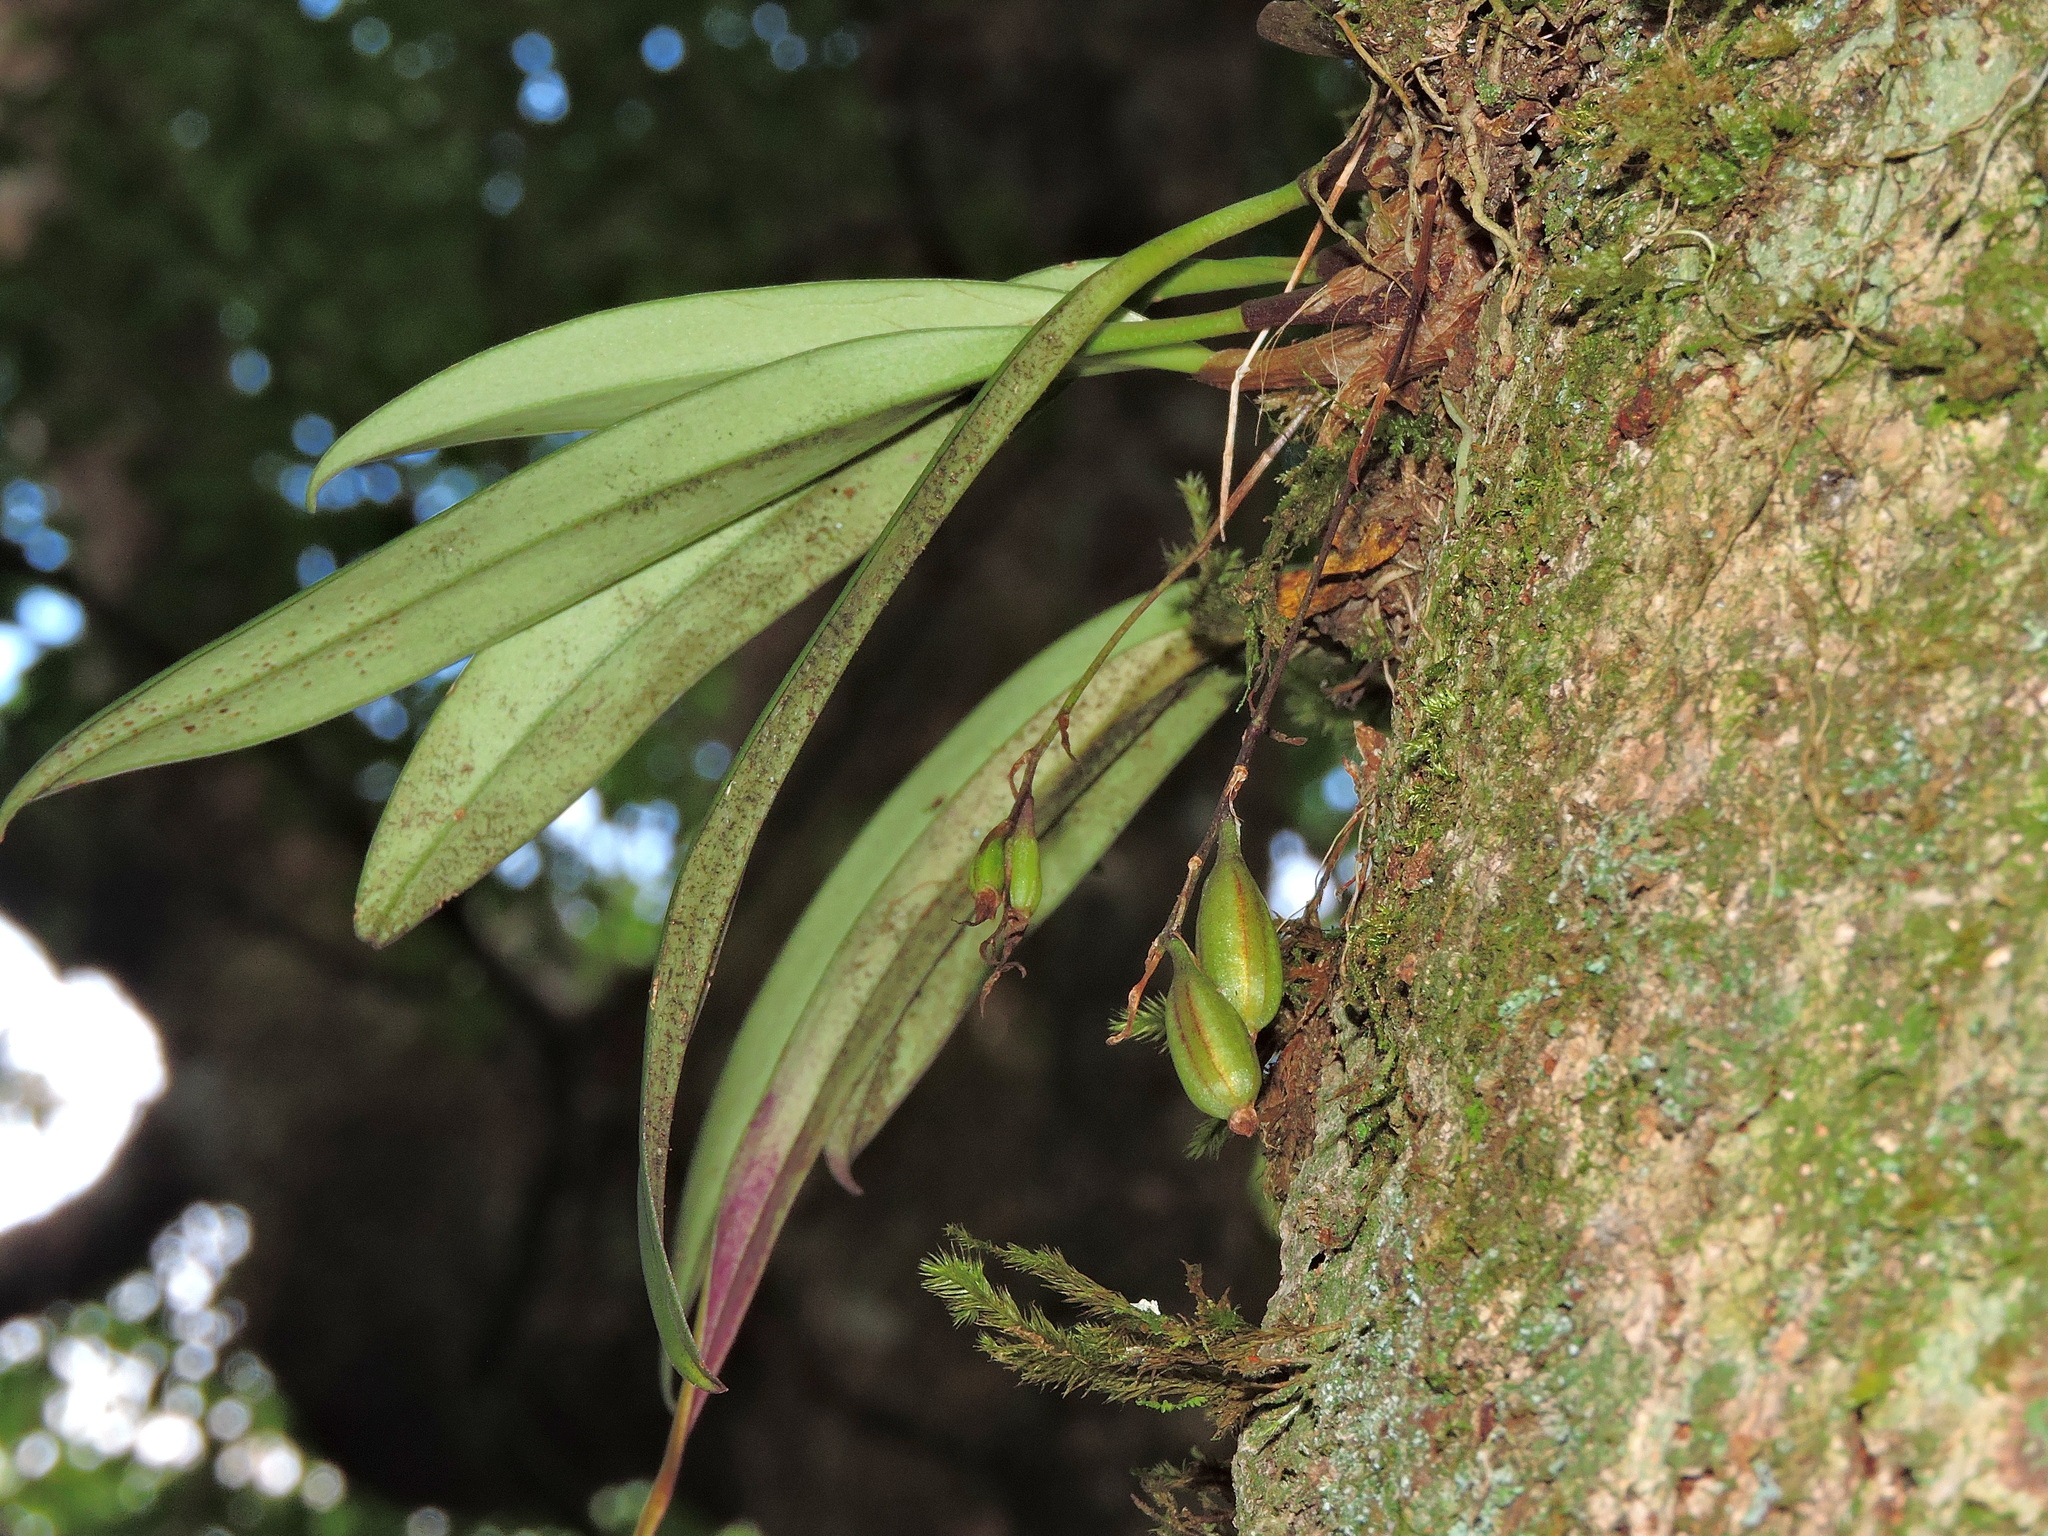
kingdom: Plantae
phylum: Tracheophyta
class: Liliopsida
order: Asparagales
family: Orchidaceae
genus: Bulbophyllum
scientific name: Bulbophyllum insulsoides
